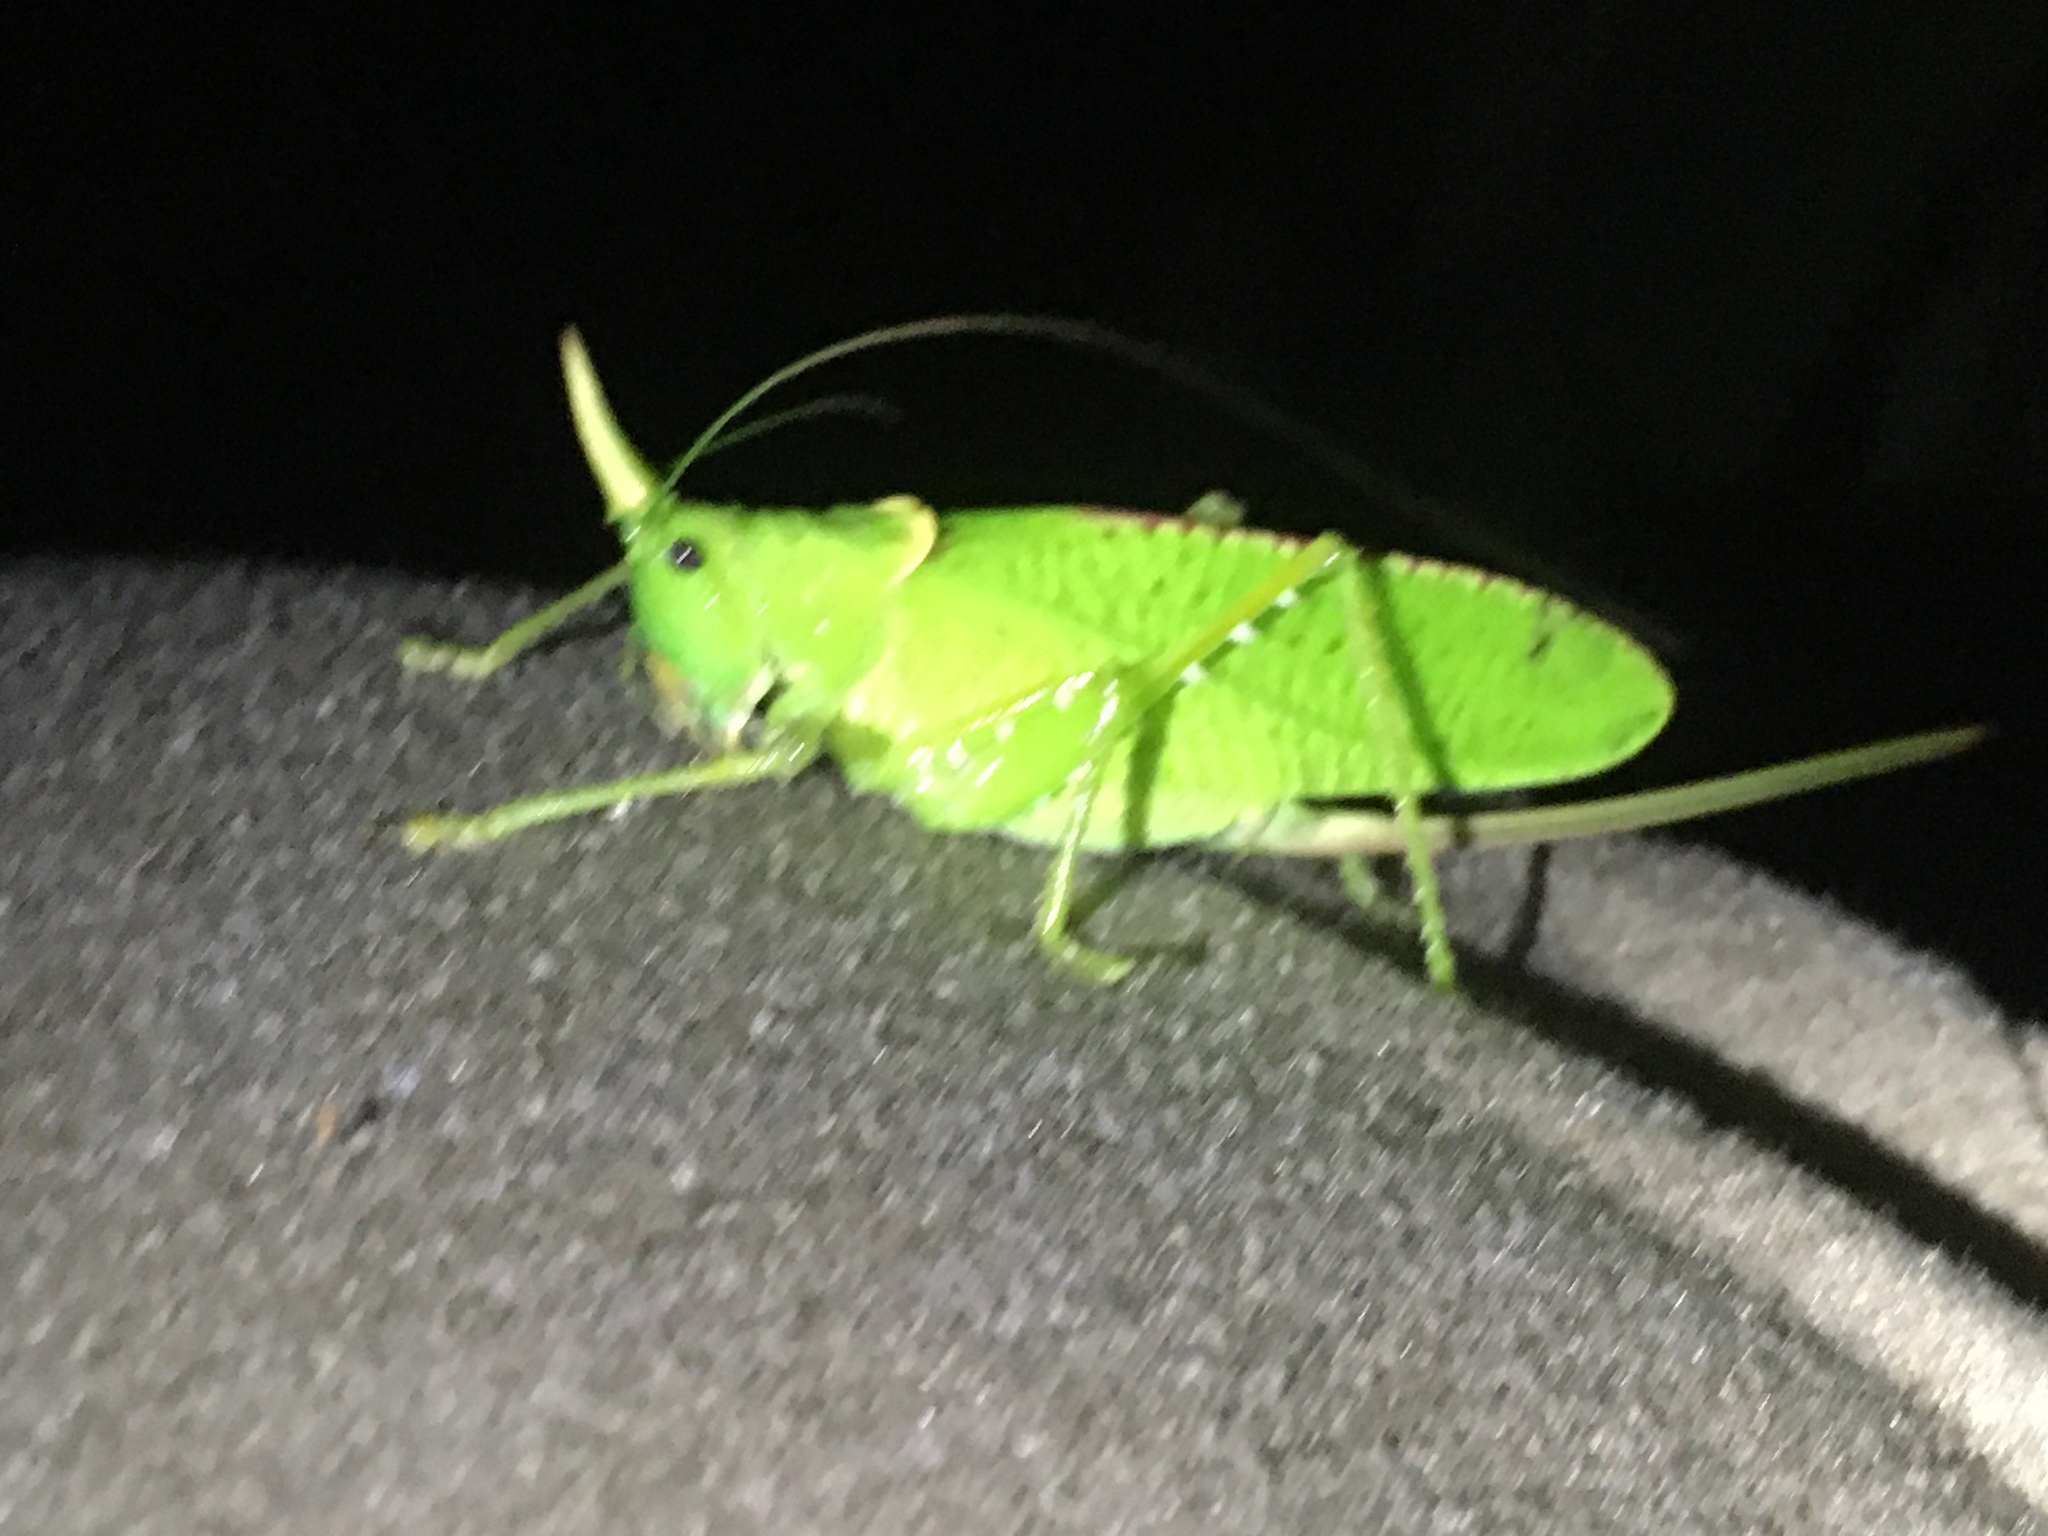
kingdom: Animalia
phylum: Arthropoda
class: Insecta
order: Orthoptera
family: Tettigoniidae
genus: Copiphora
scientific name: Copiphora rhinoceros
